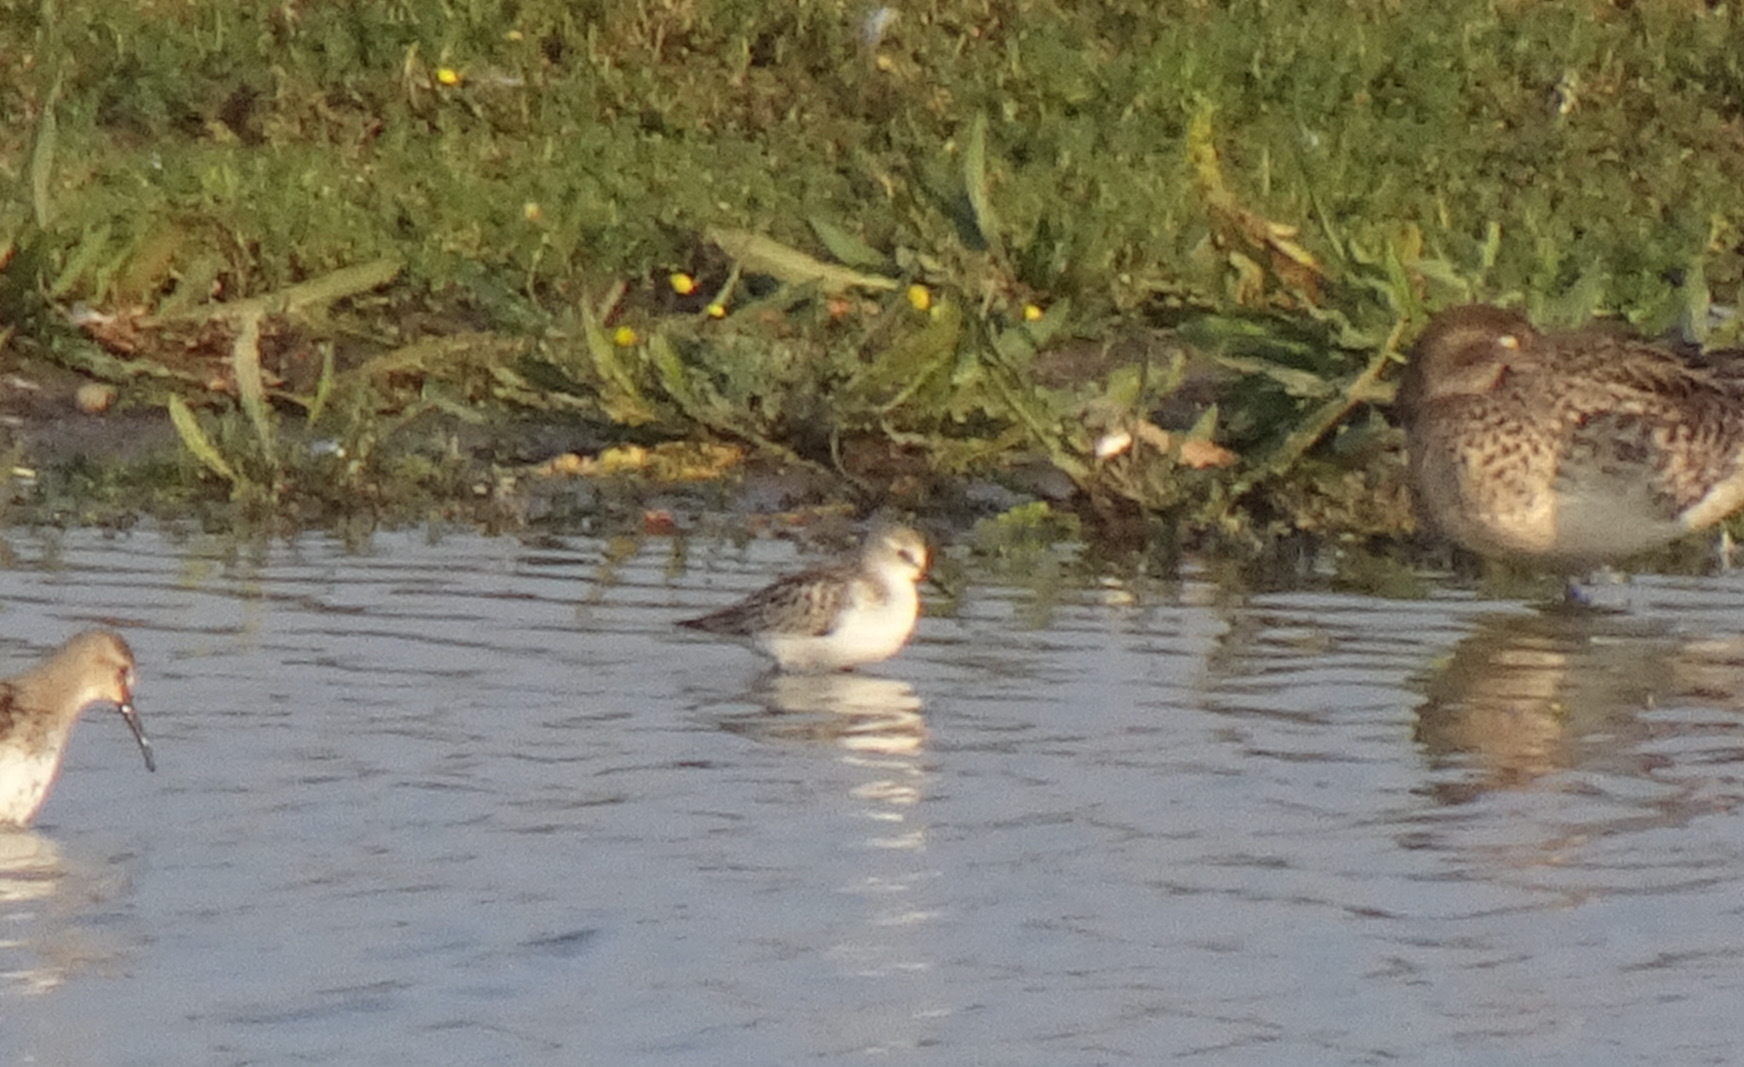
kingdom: Animalia
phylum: Chordata
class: Aves
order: Charadriiformes
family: Scolopacidae
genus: Calidris
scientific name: Calidris minuta
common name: Little stint
